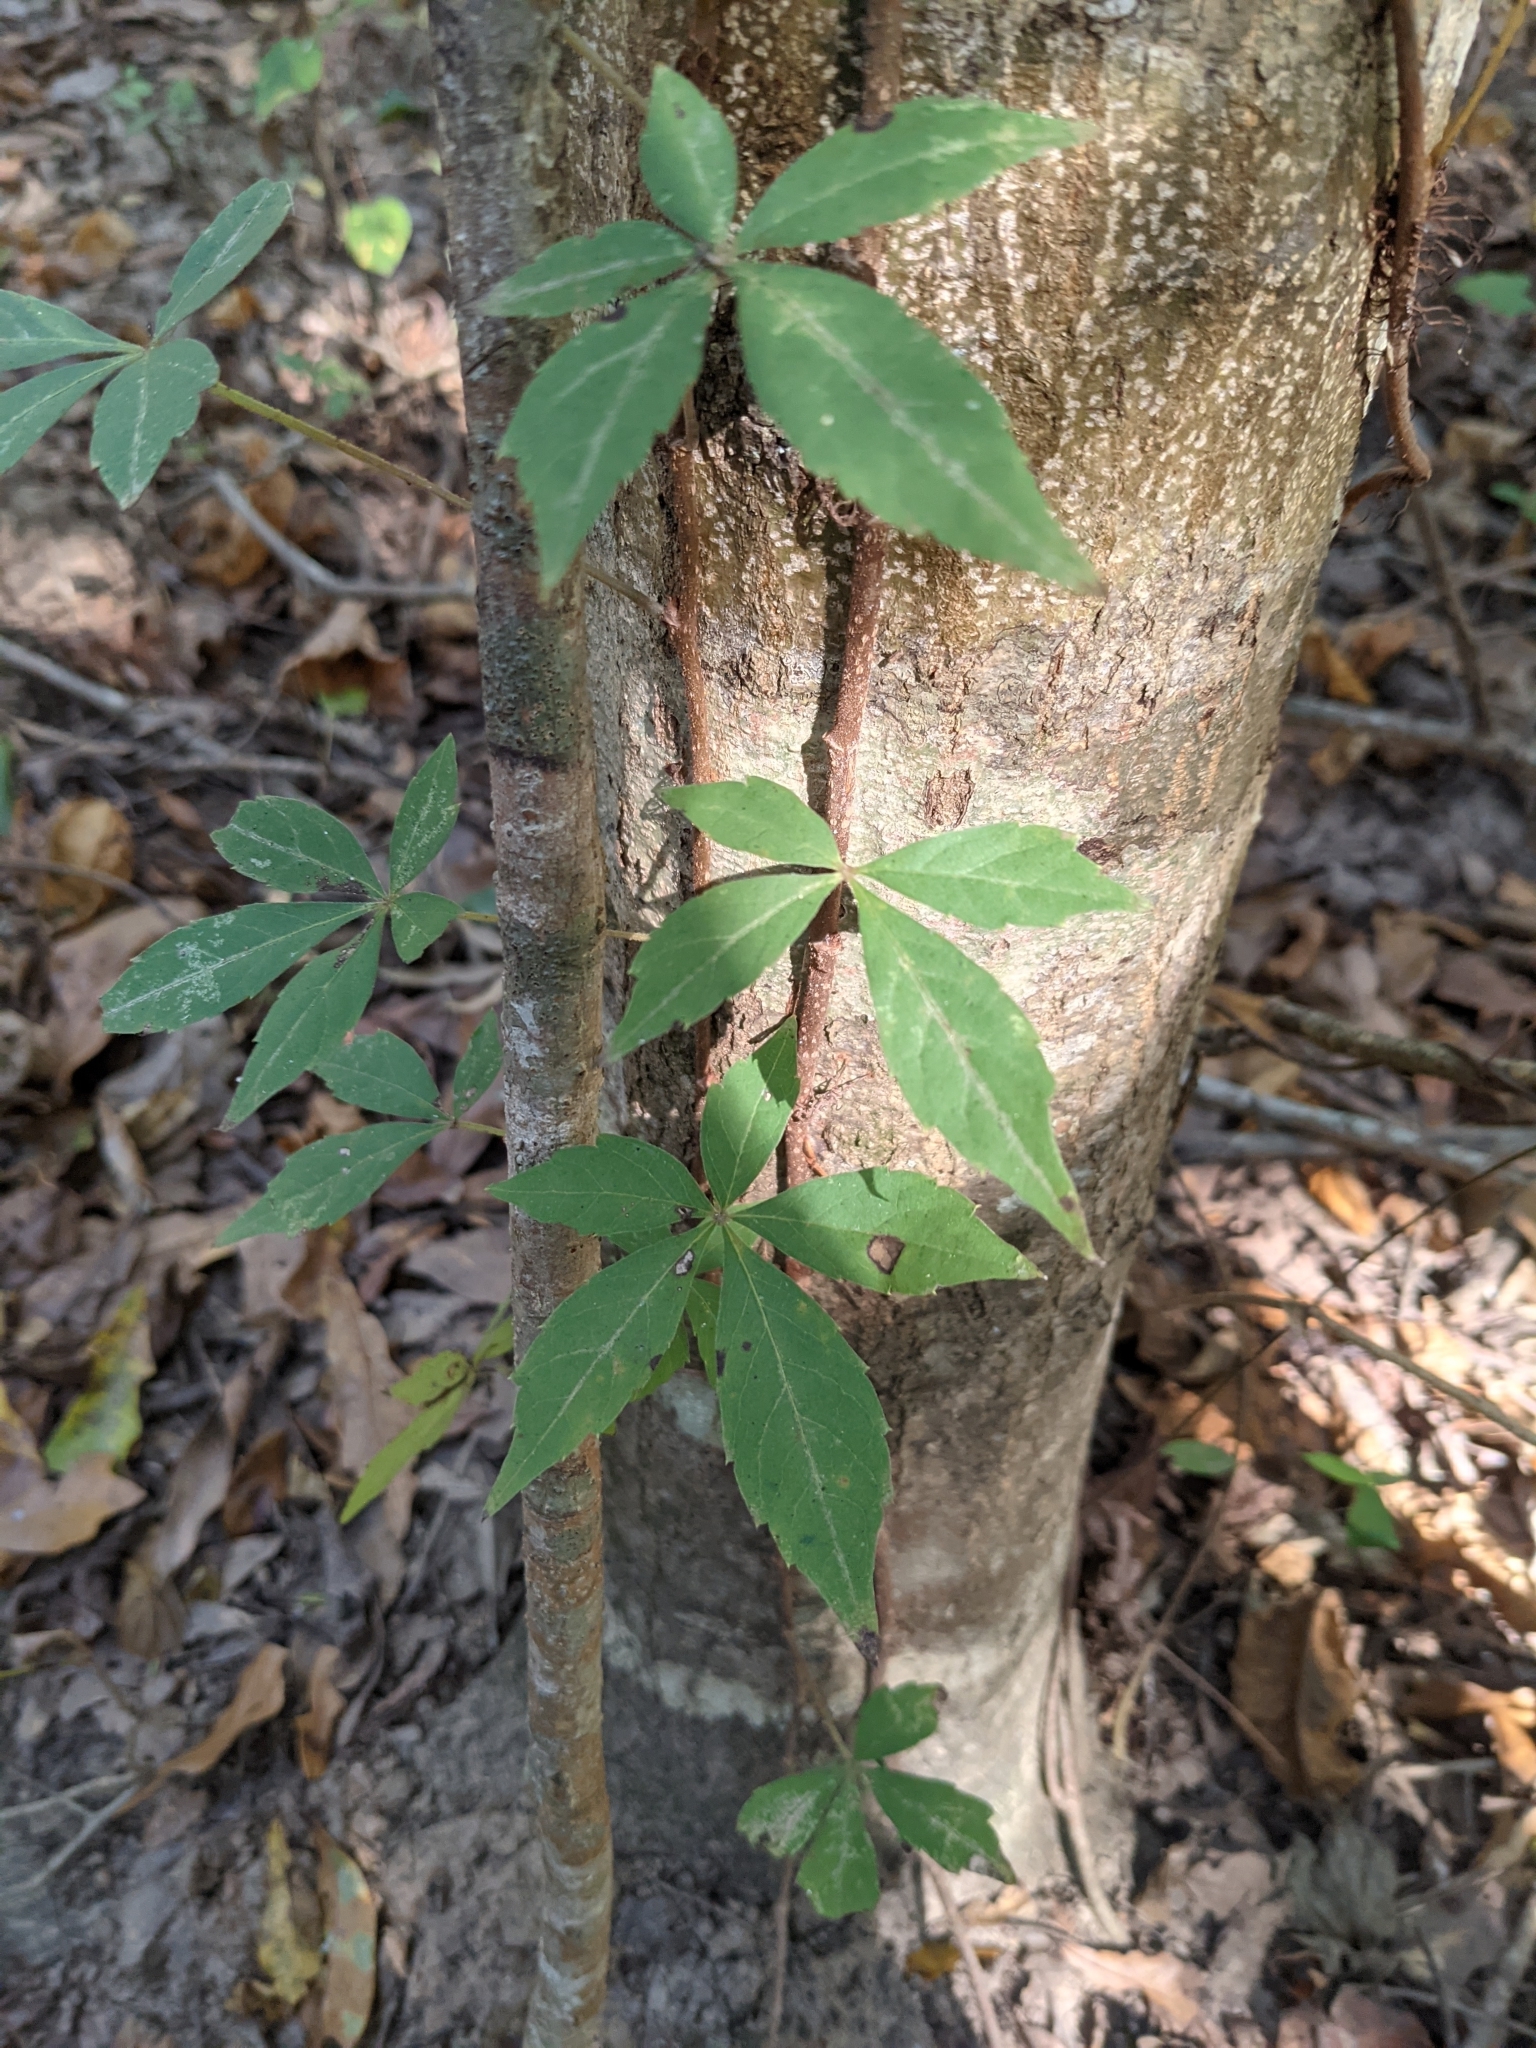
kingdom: Plantae
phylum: Tracheophyta
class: Magnoliopsida
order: Vitales
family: Vitaceae
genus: Parthenocissus
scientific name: Parthenocissus quinquefolia
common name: Virginia-creeper
